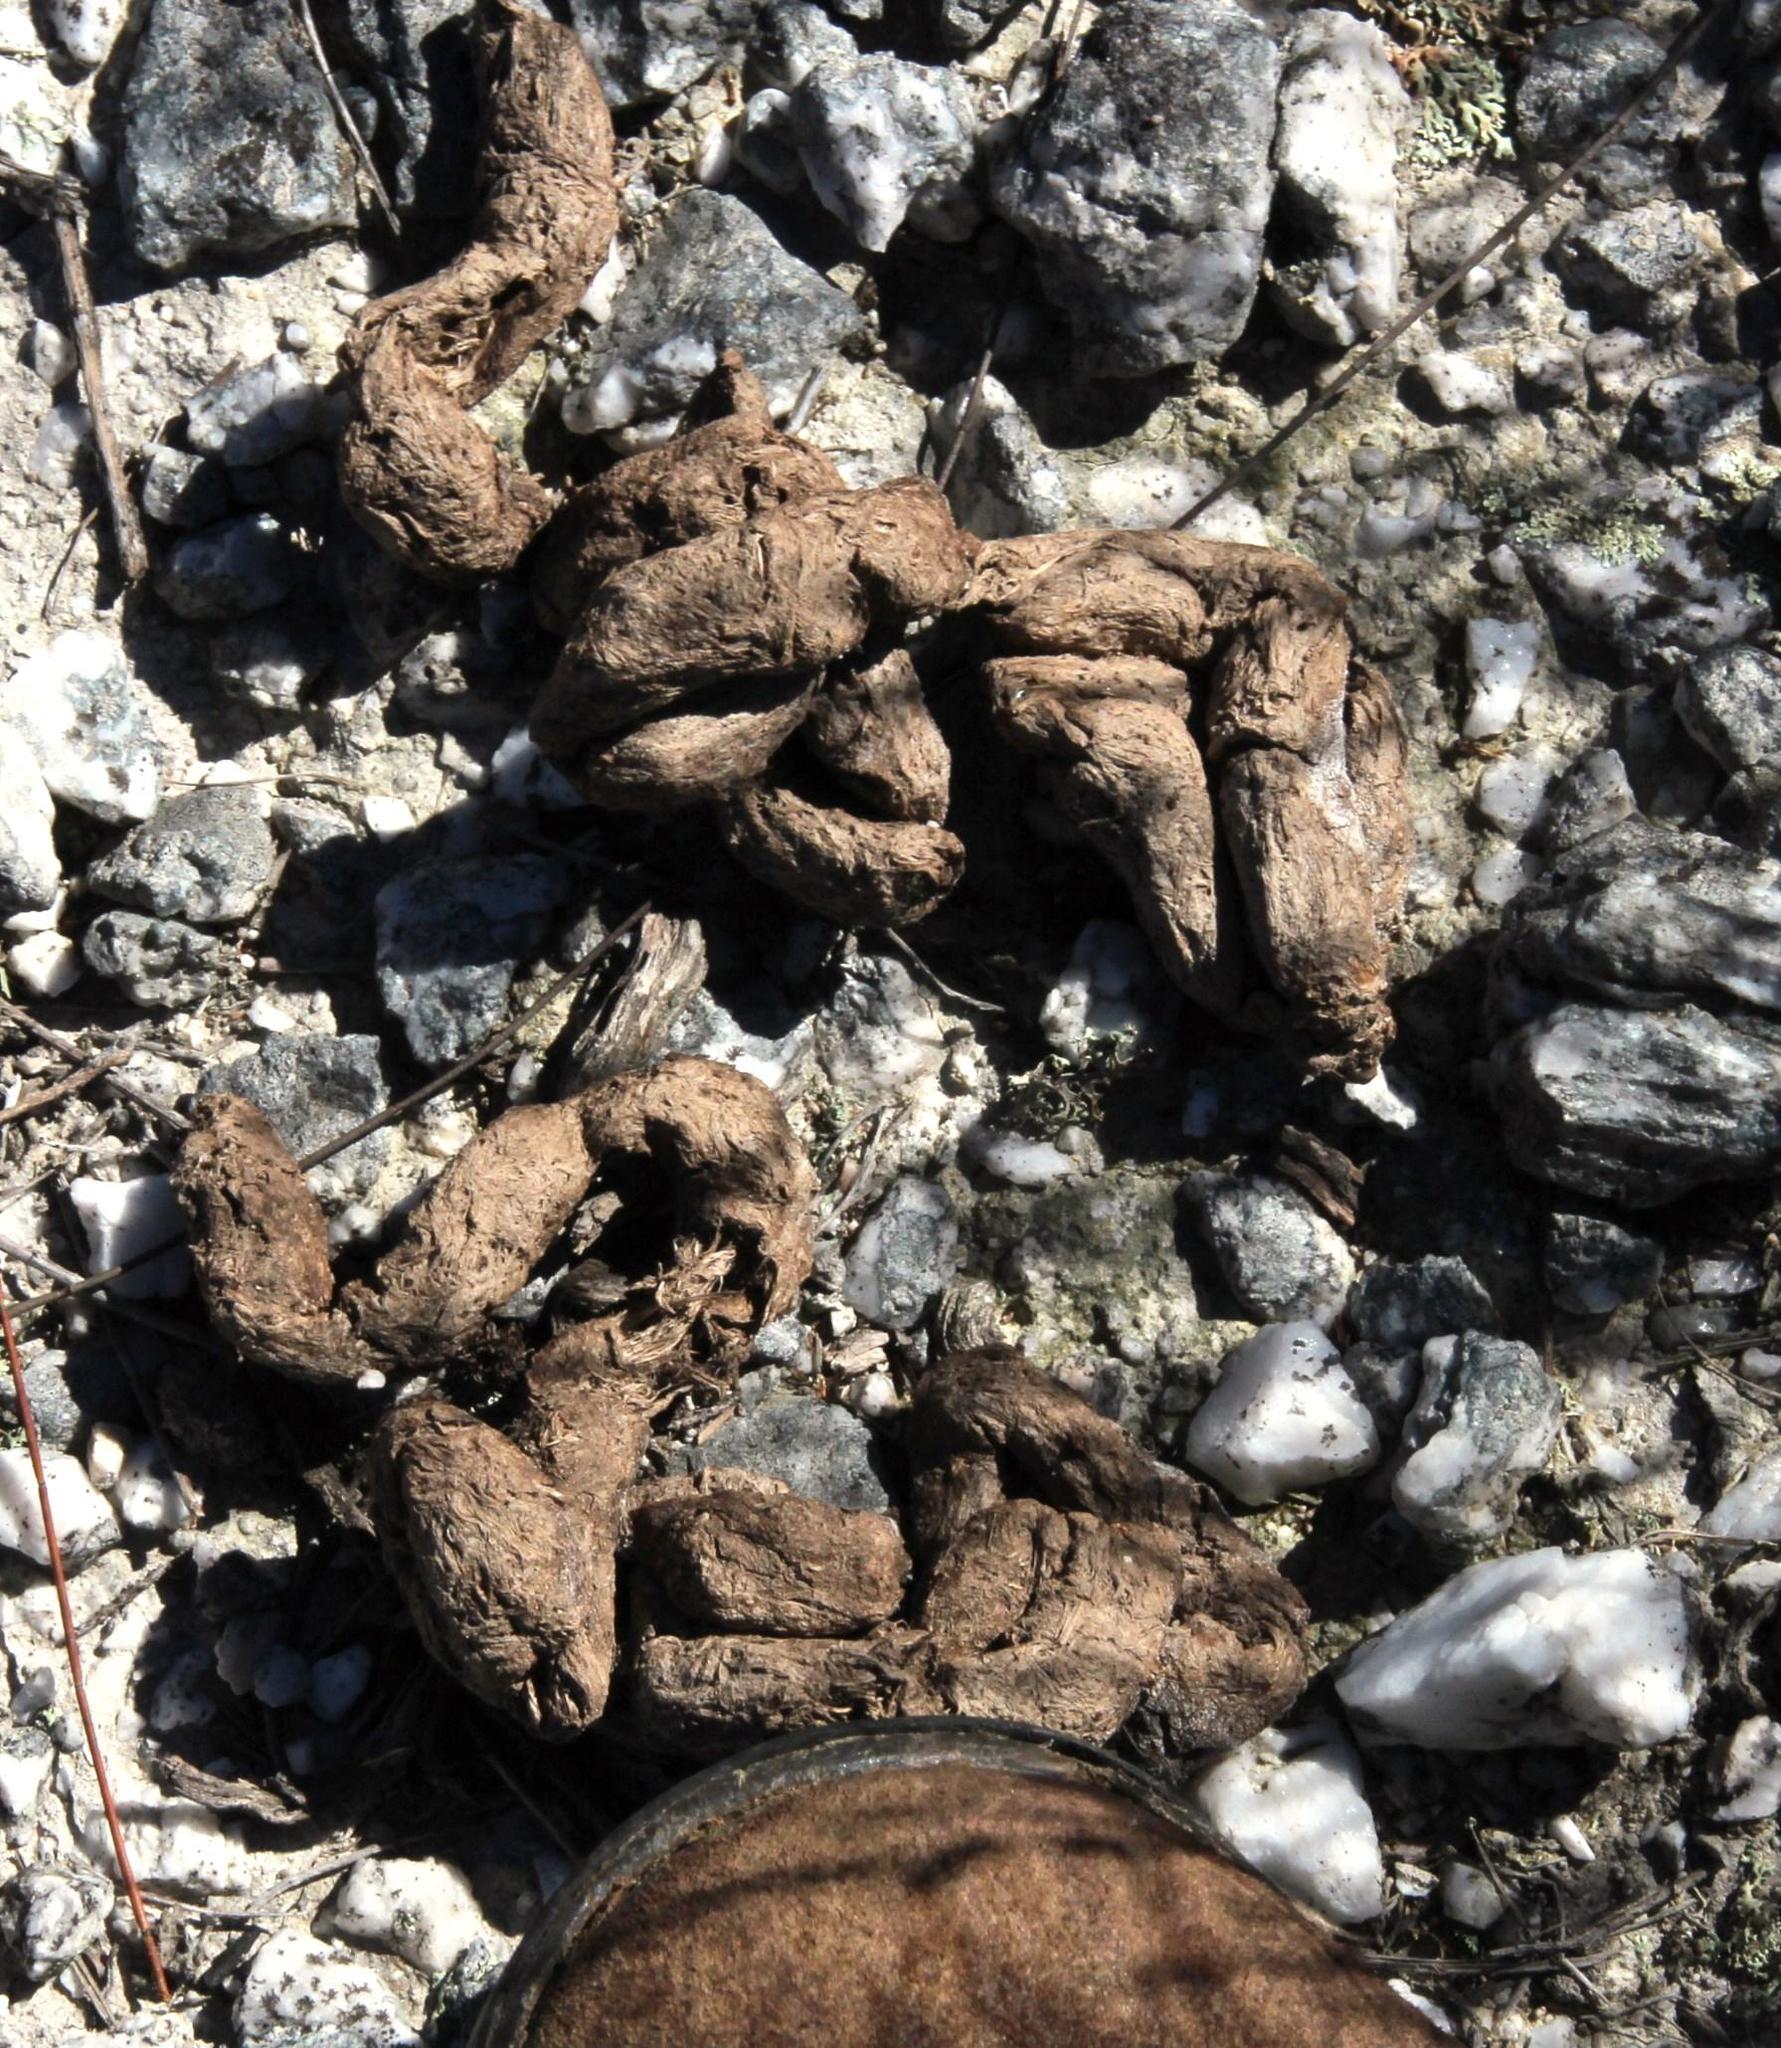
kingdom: Animalia
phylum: Chordata
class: Mammalia
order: Rodentia
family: Hystricidae
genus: Hystrix
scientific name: Hystrix africaeaustralis
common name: Cape porcupine
